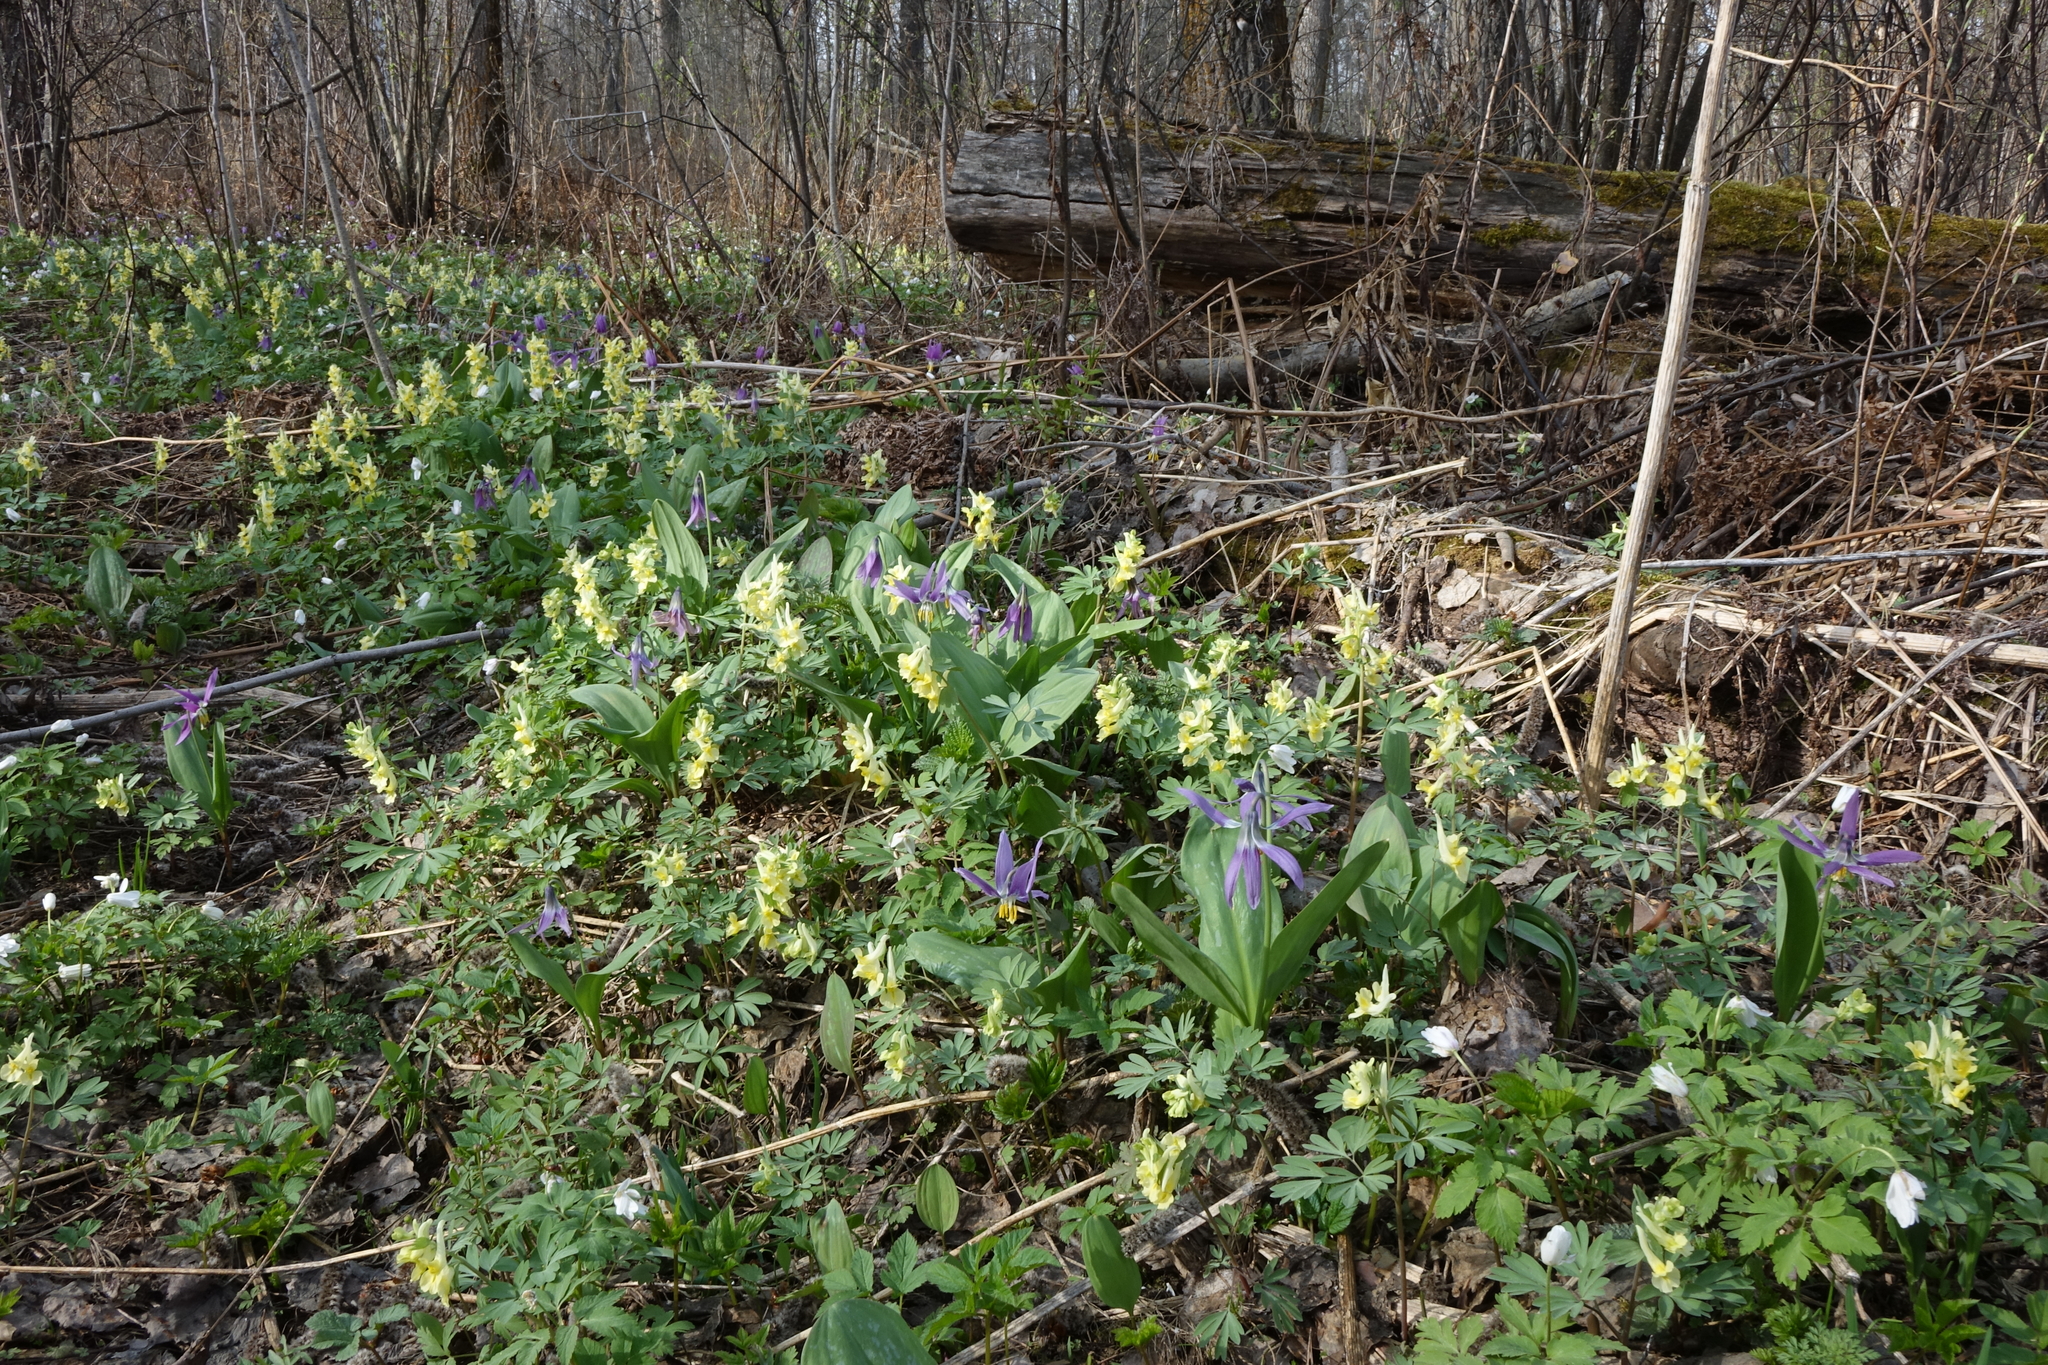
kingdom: Plantae
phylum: Tracheophyta
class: Magnoliopsida
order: Ranunculales
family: Papaveraceae
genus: Corydalis
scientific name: Corydalis bracteata
